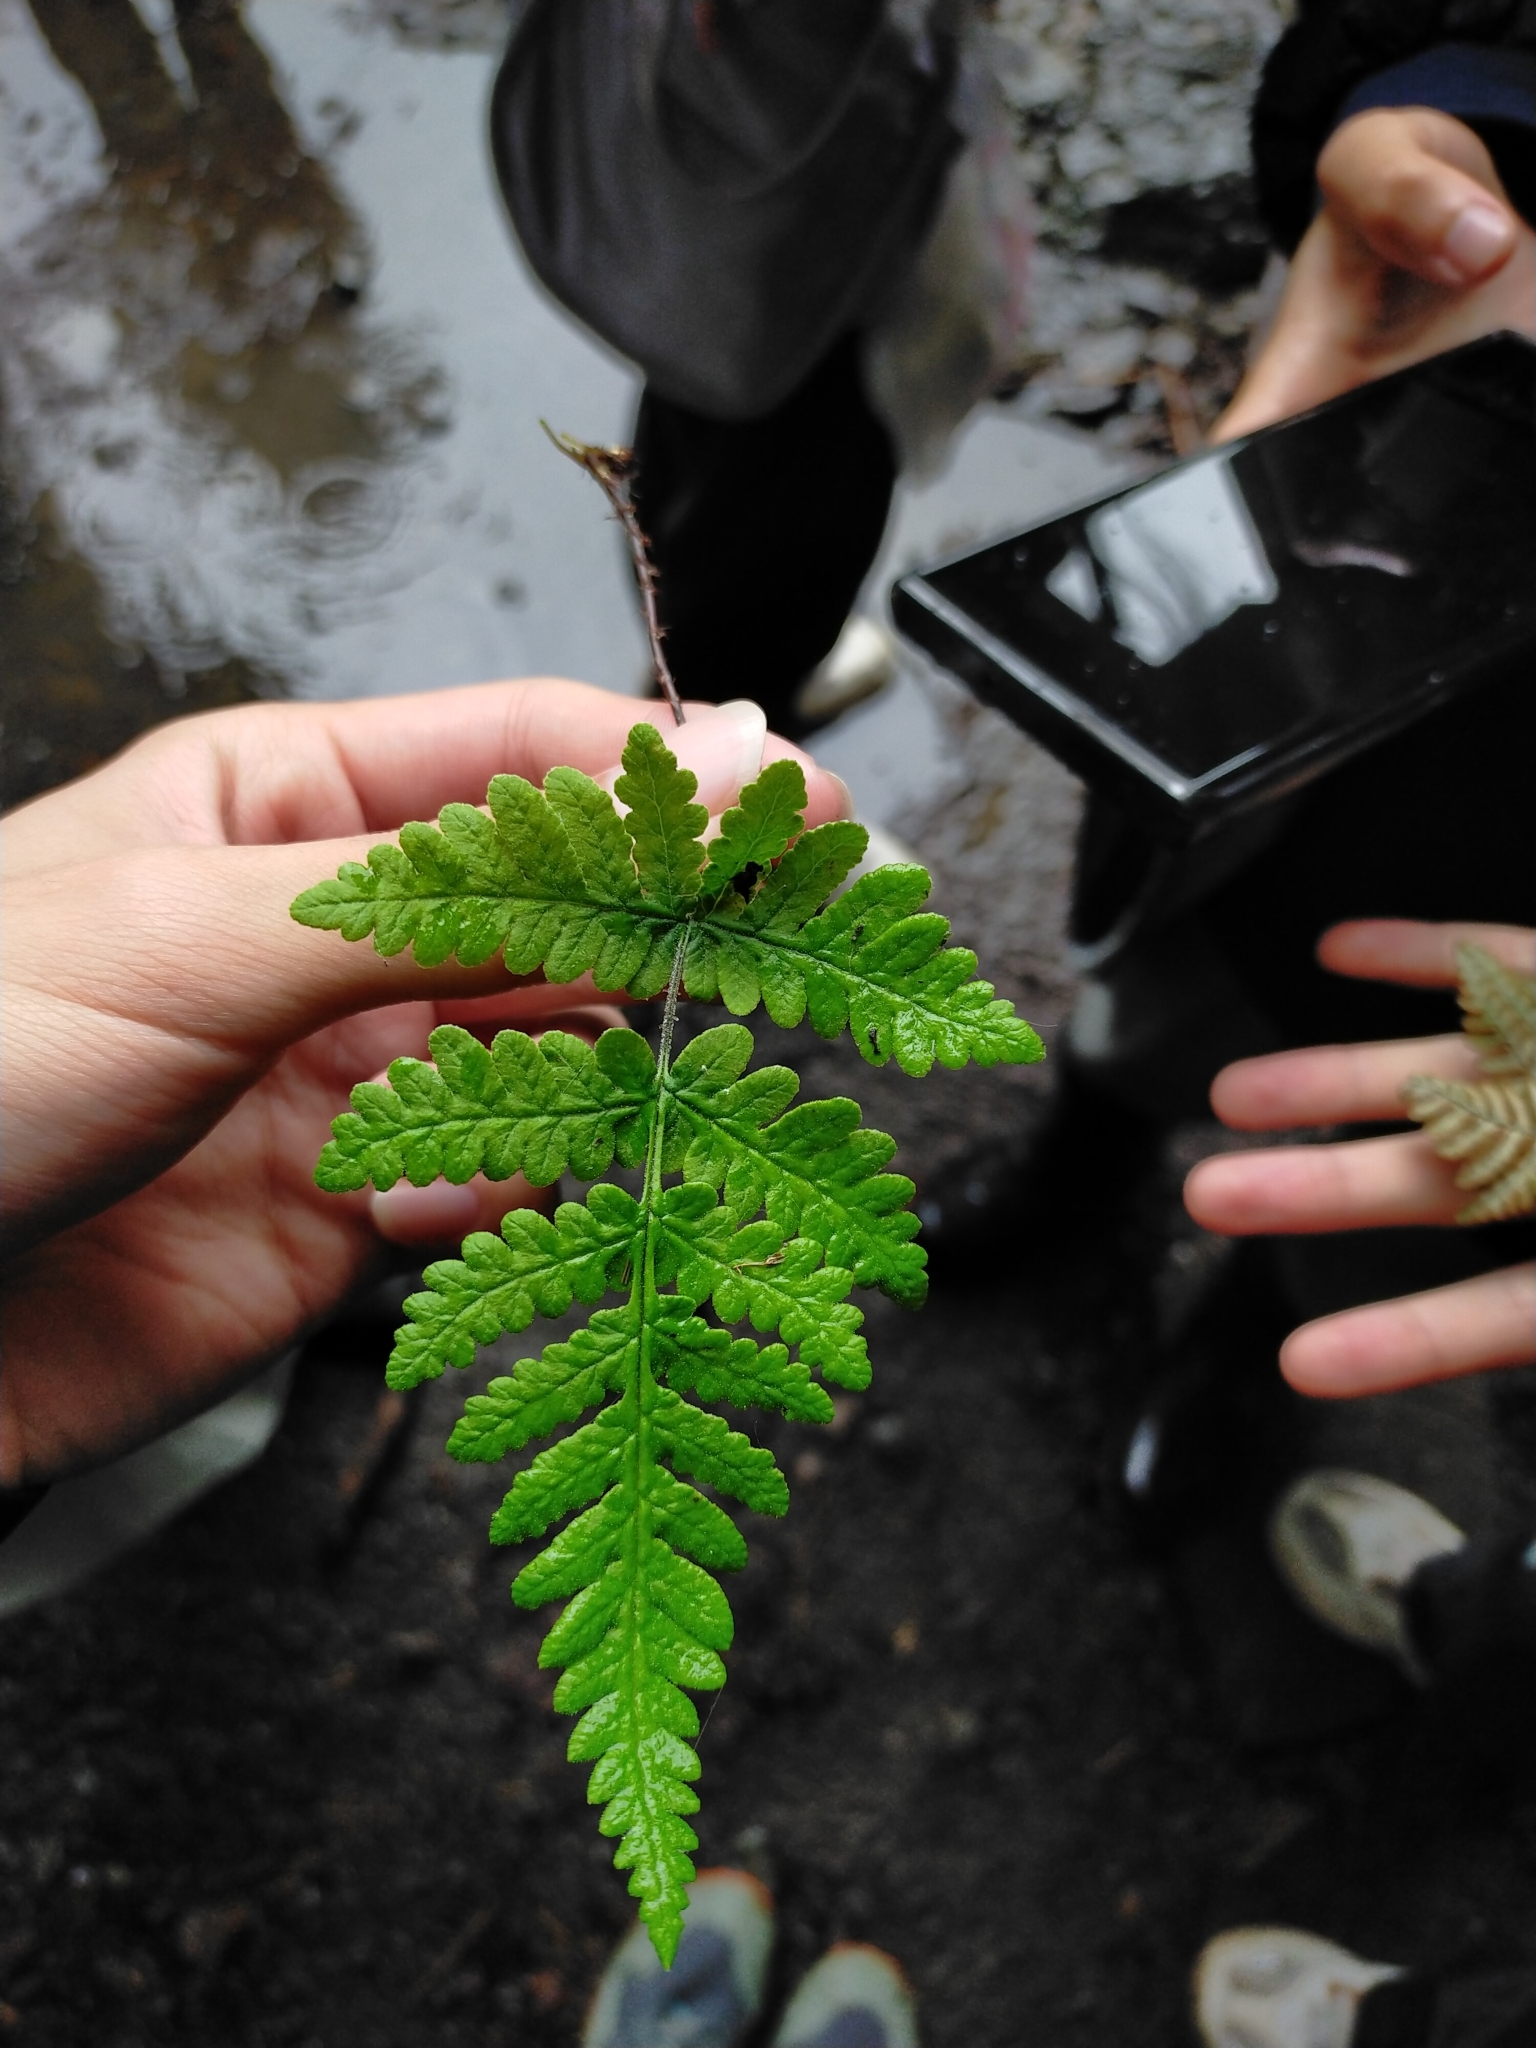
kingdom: Plantae
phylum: Tracheophyta
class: Polypodiopsida
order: Polypodiales
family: Pteridaceae
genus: Aleuritopteris
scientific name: Aleuritopteris formosana
